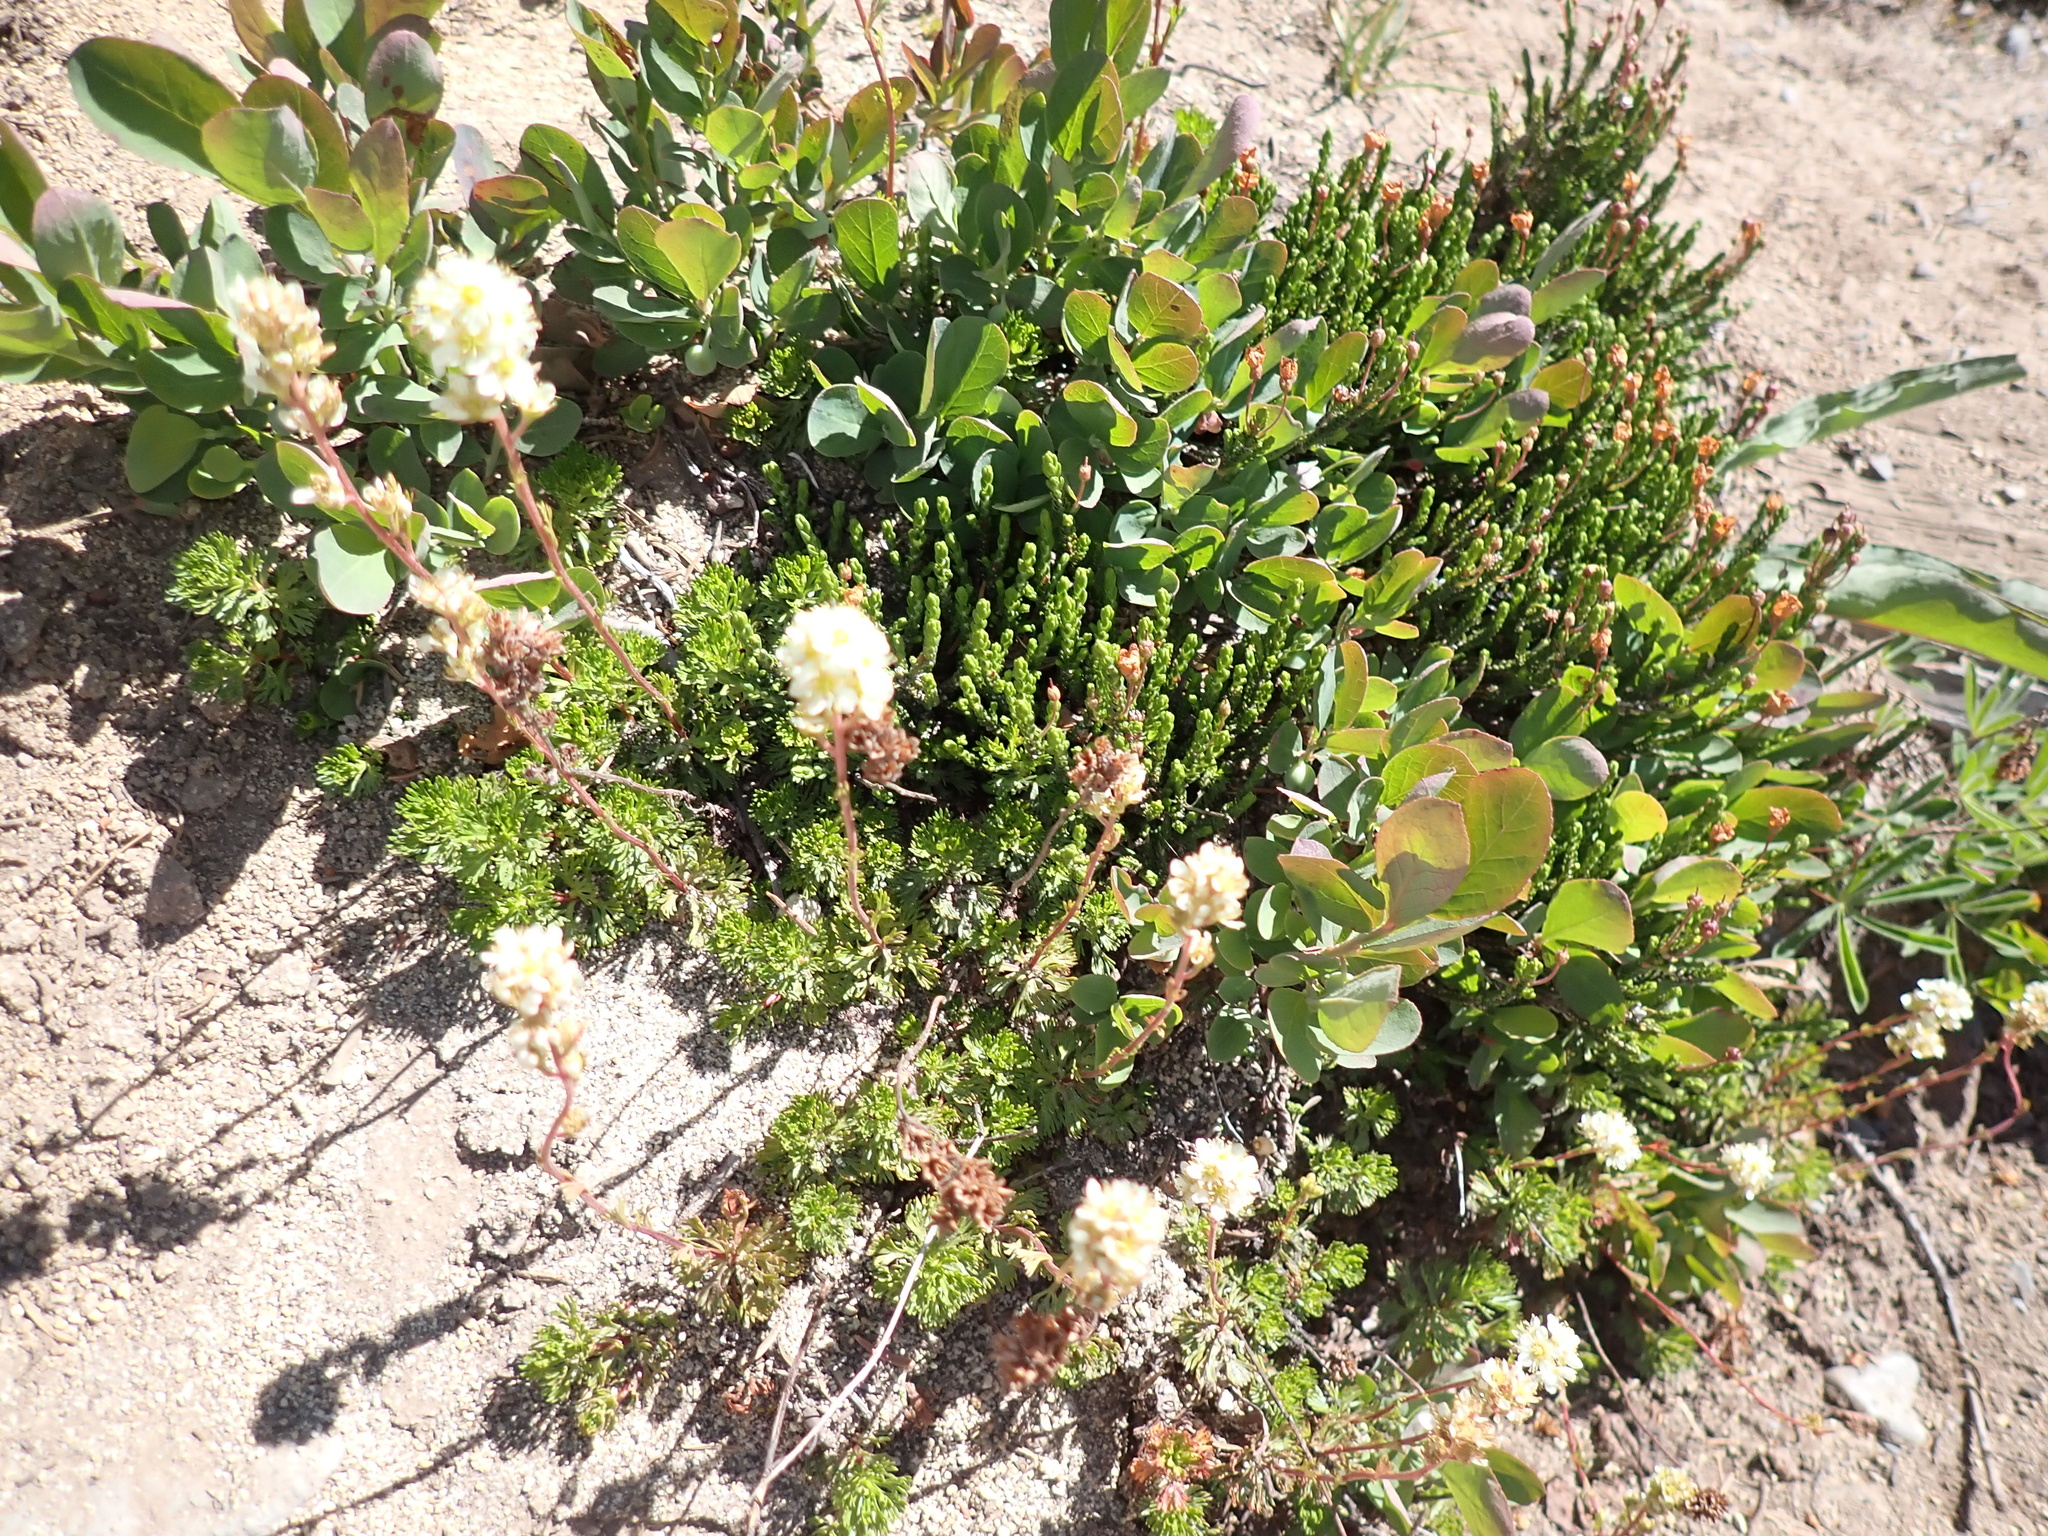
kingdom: Plantae
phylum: Tracheophyta
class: Magnoliopsida
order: Rosales
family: Rosaceae
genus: Luetkea
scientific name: Luetkea pectinata
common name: Partridgefoot
